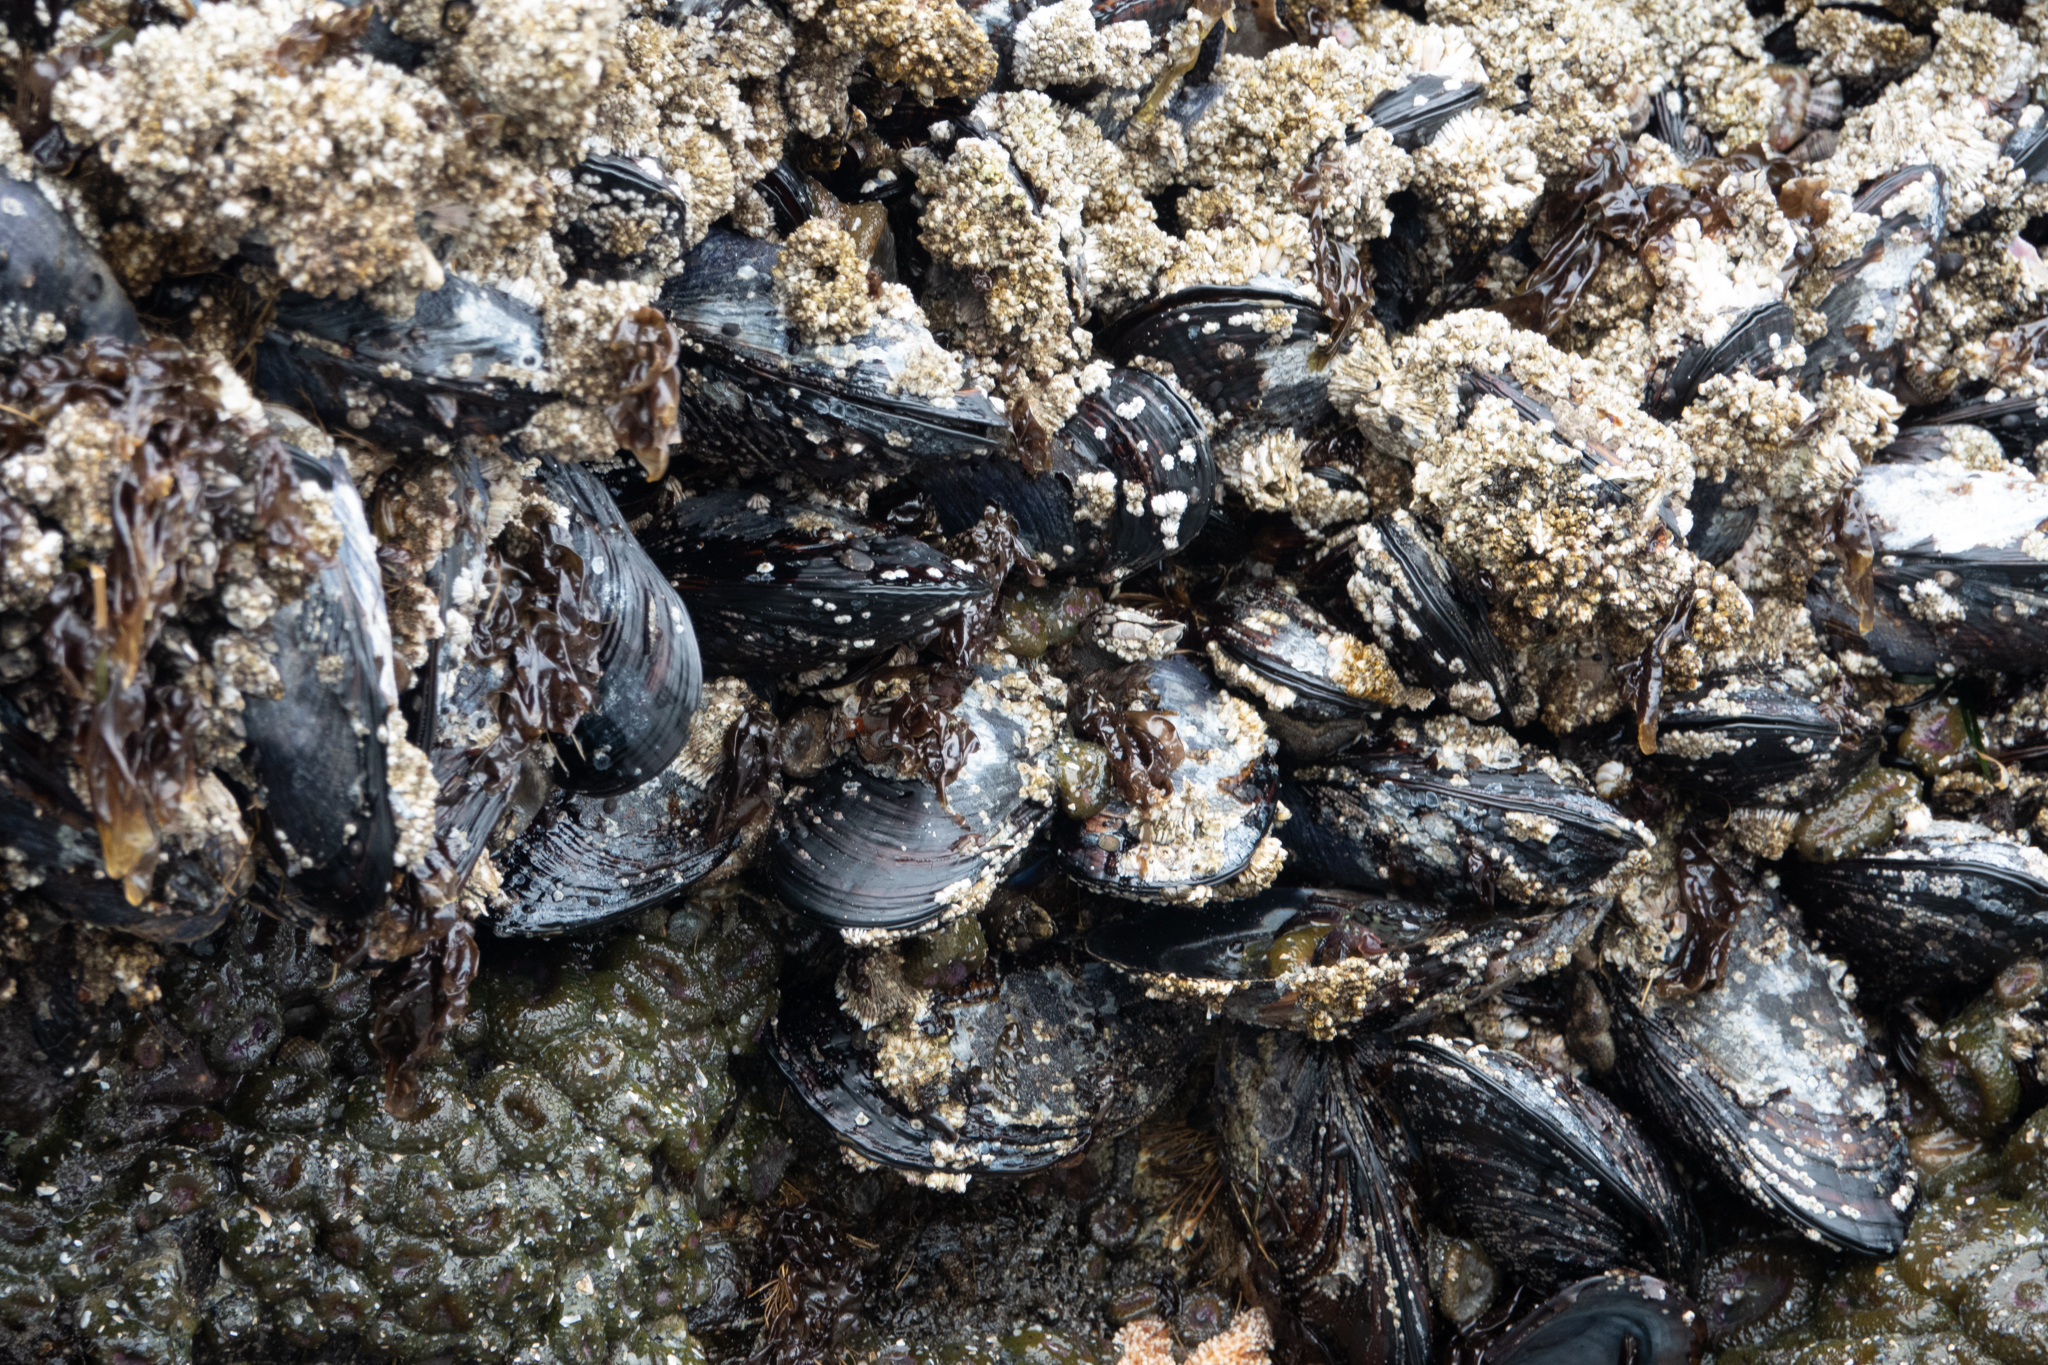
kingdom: Animalia
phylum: Mollusca
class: Bivalvia
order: Mytilida
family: Mytilidae
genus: Mytilus
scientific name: Mytilus californianus
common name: California mussel
